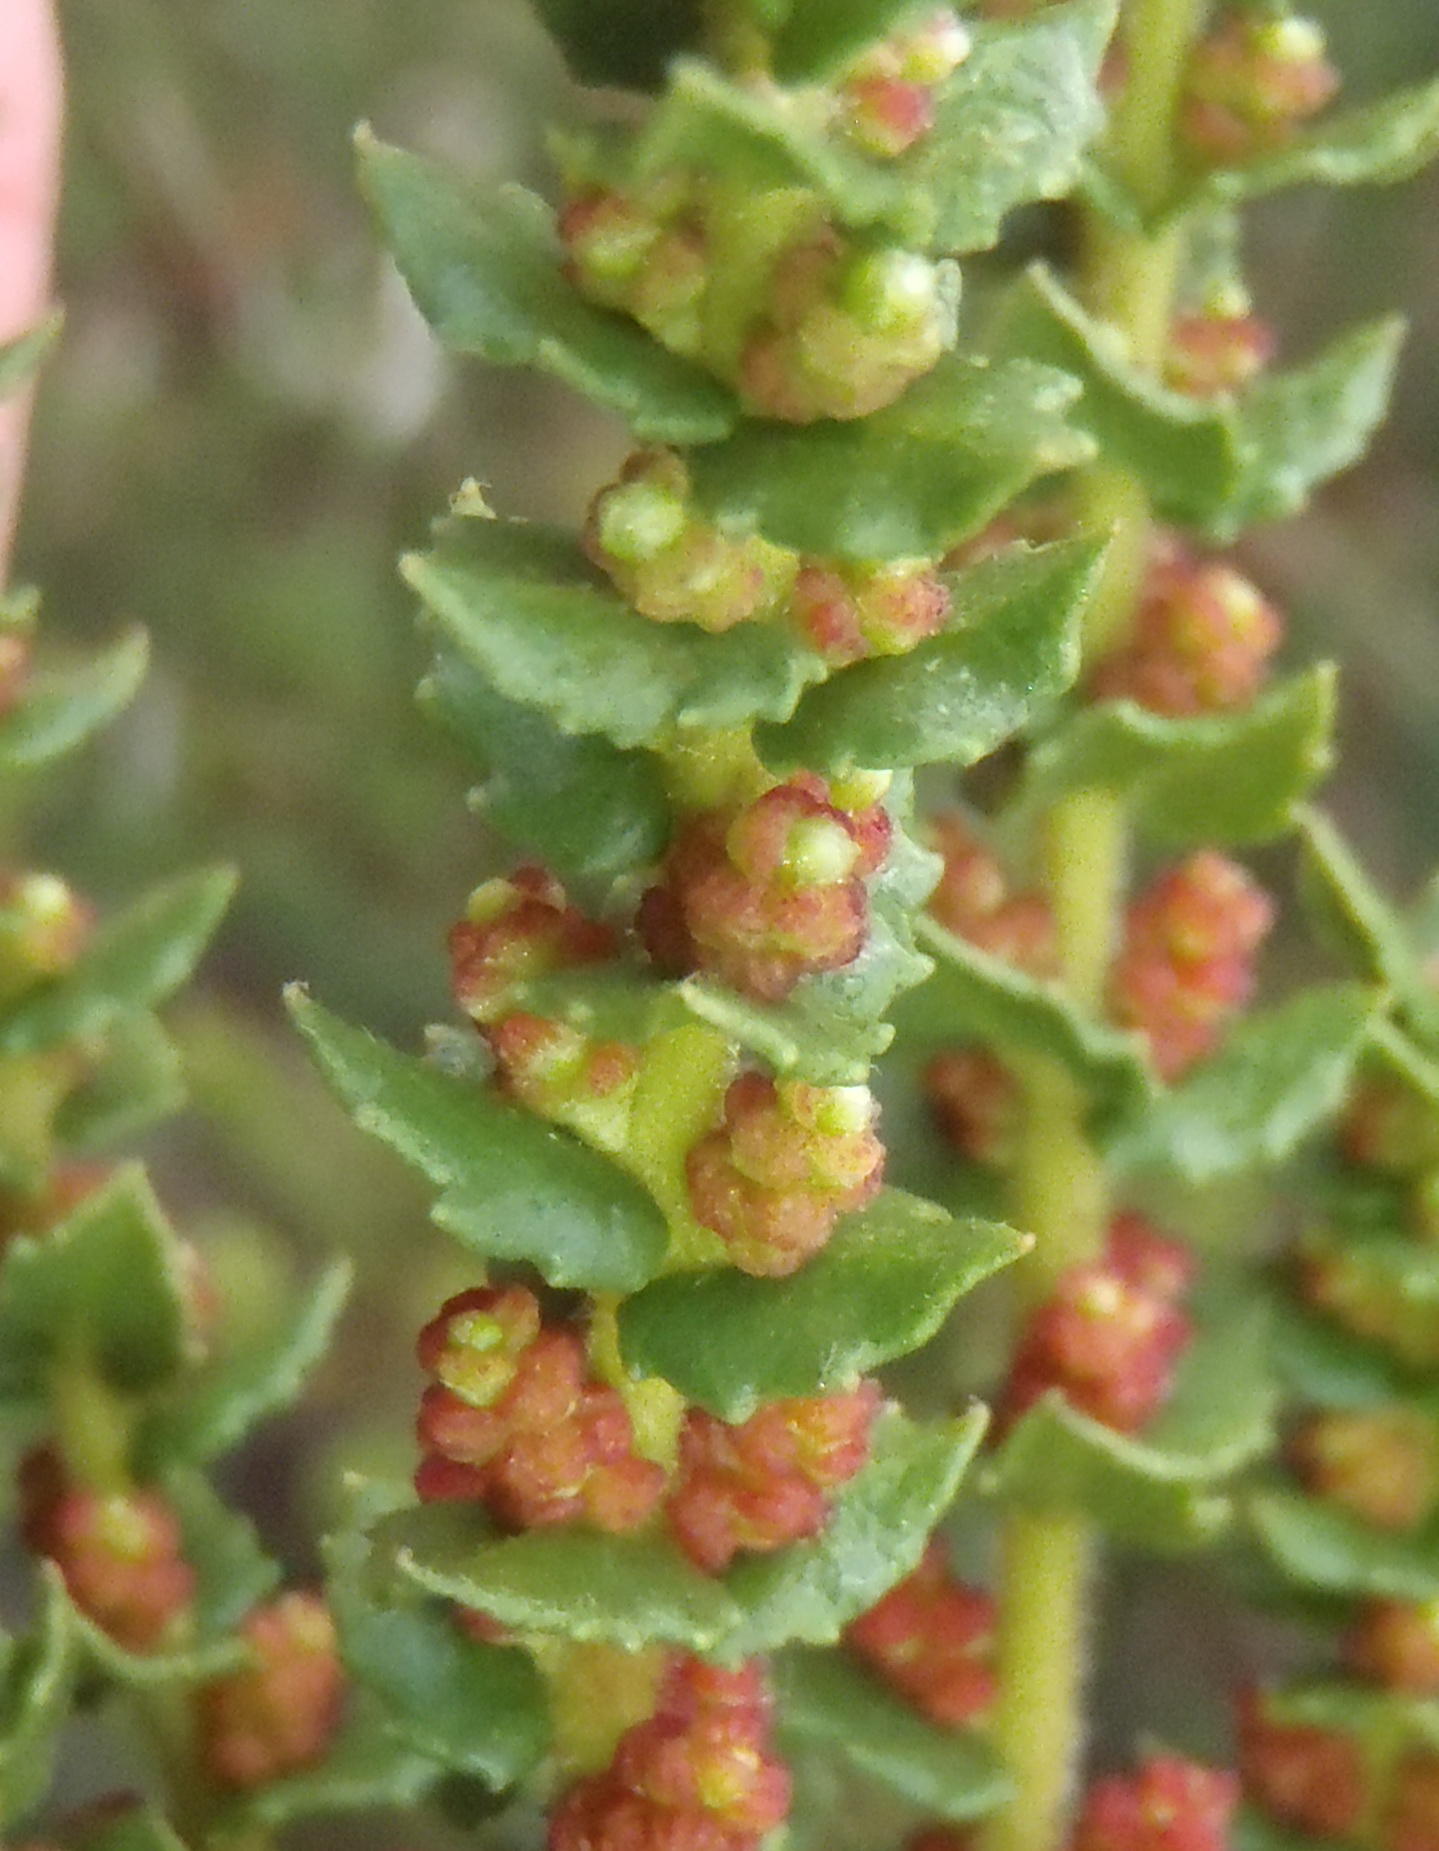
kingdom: Plantae
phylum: Tracheophyta
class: Magnoliopsida
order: Fagales
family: Myricaceae
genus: Morella
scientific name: Morella cordifolia
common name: Waxberry
